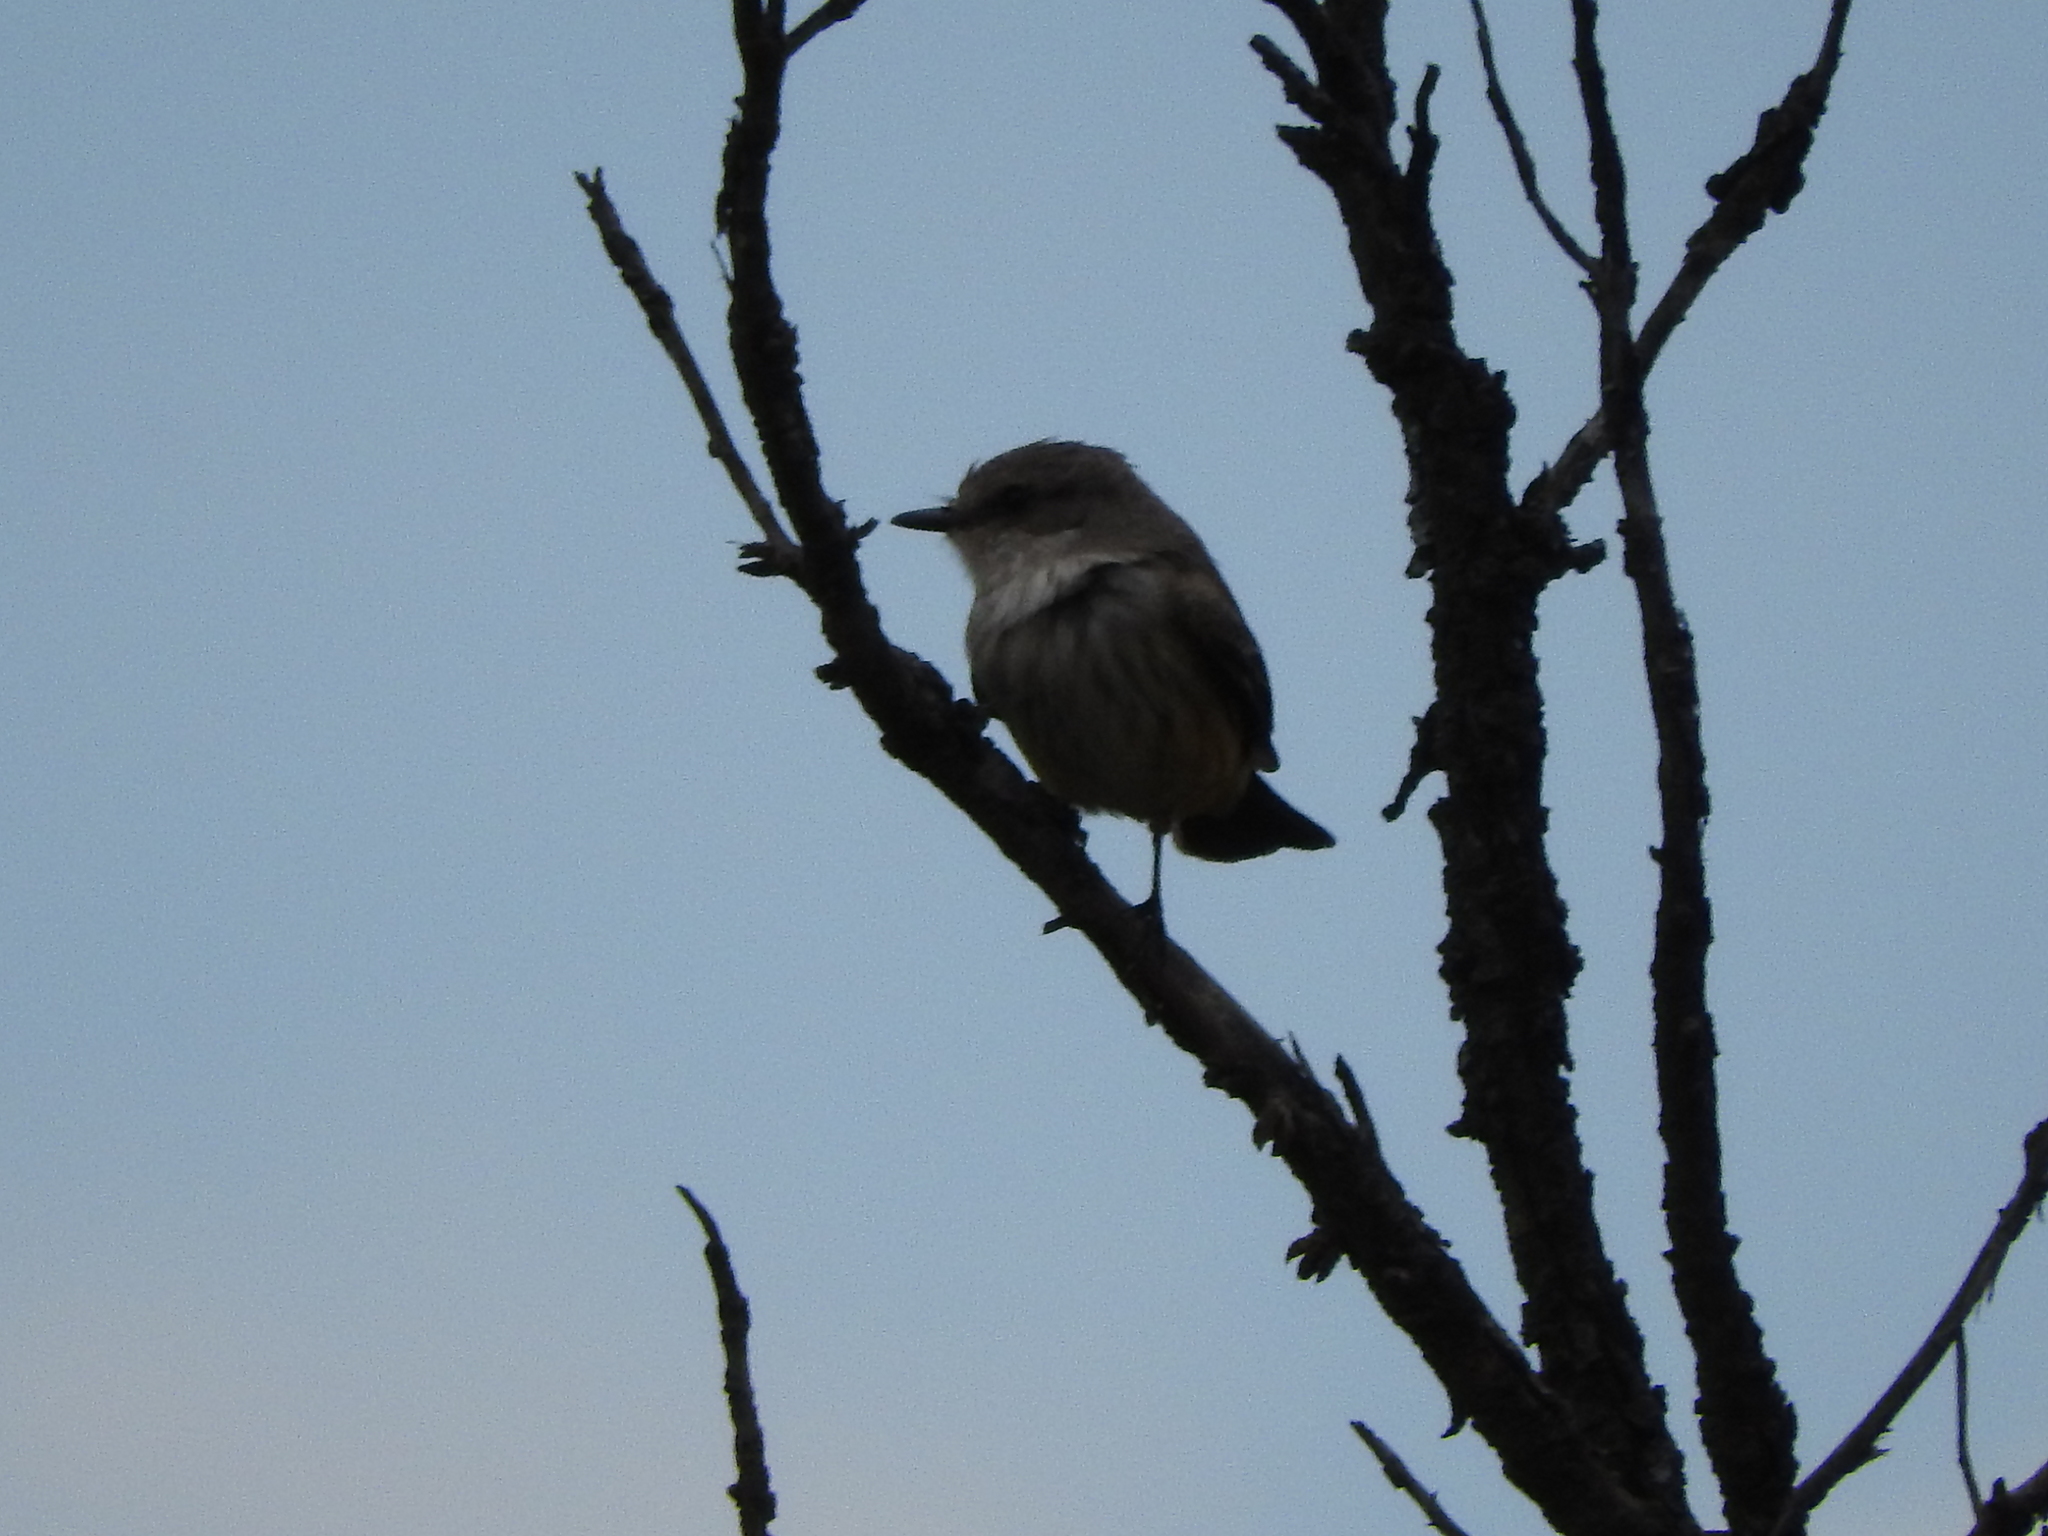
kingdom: Animalia
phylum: Chordata
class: Aves
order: Passeriformes
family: Tyrannidae
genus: Pyrocephalus
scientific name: Pyrocephalus rubinus
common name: Vermilion flycatcher
